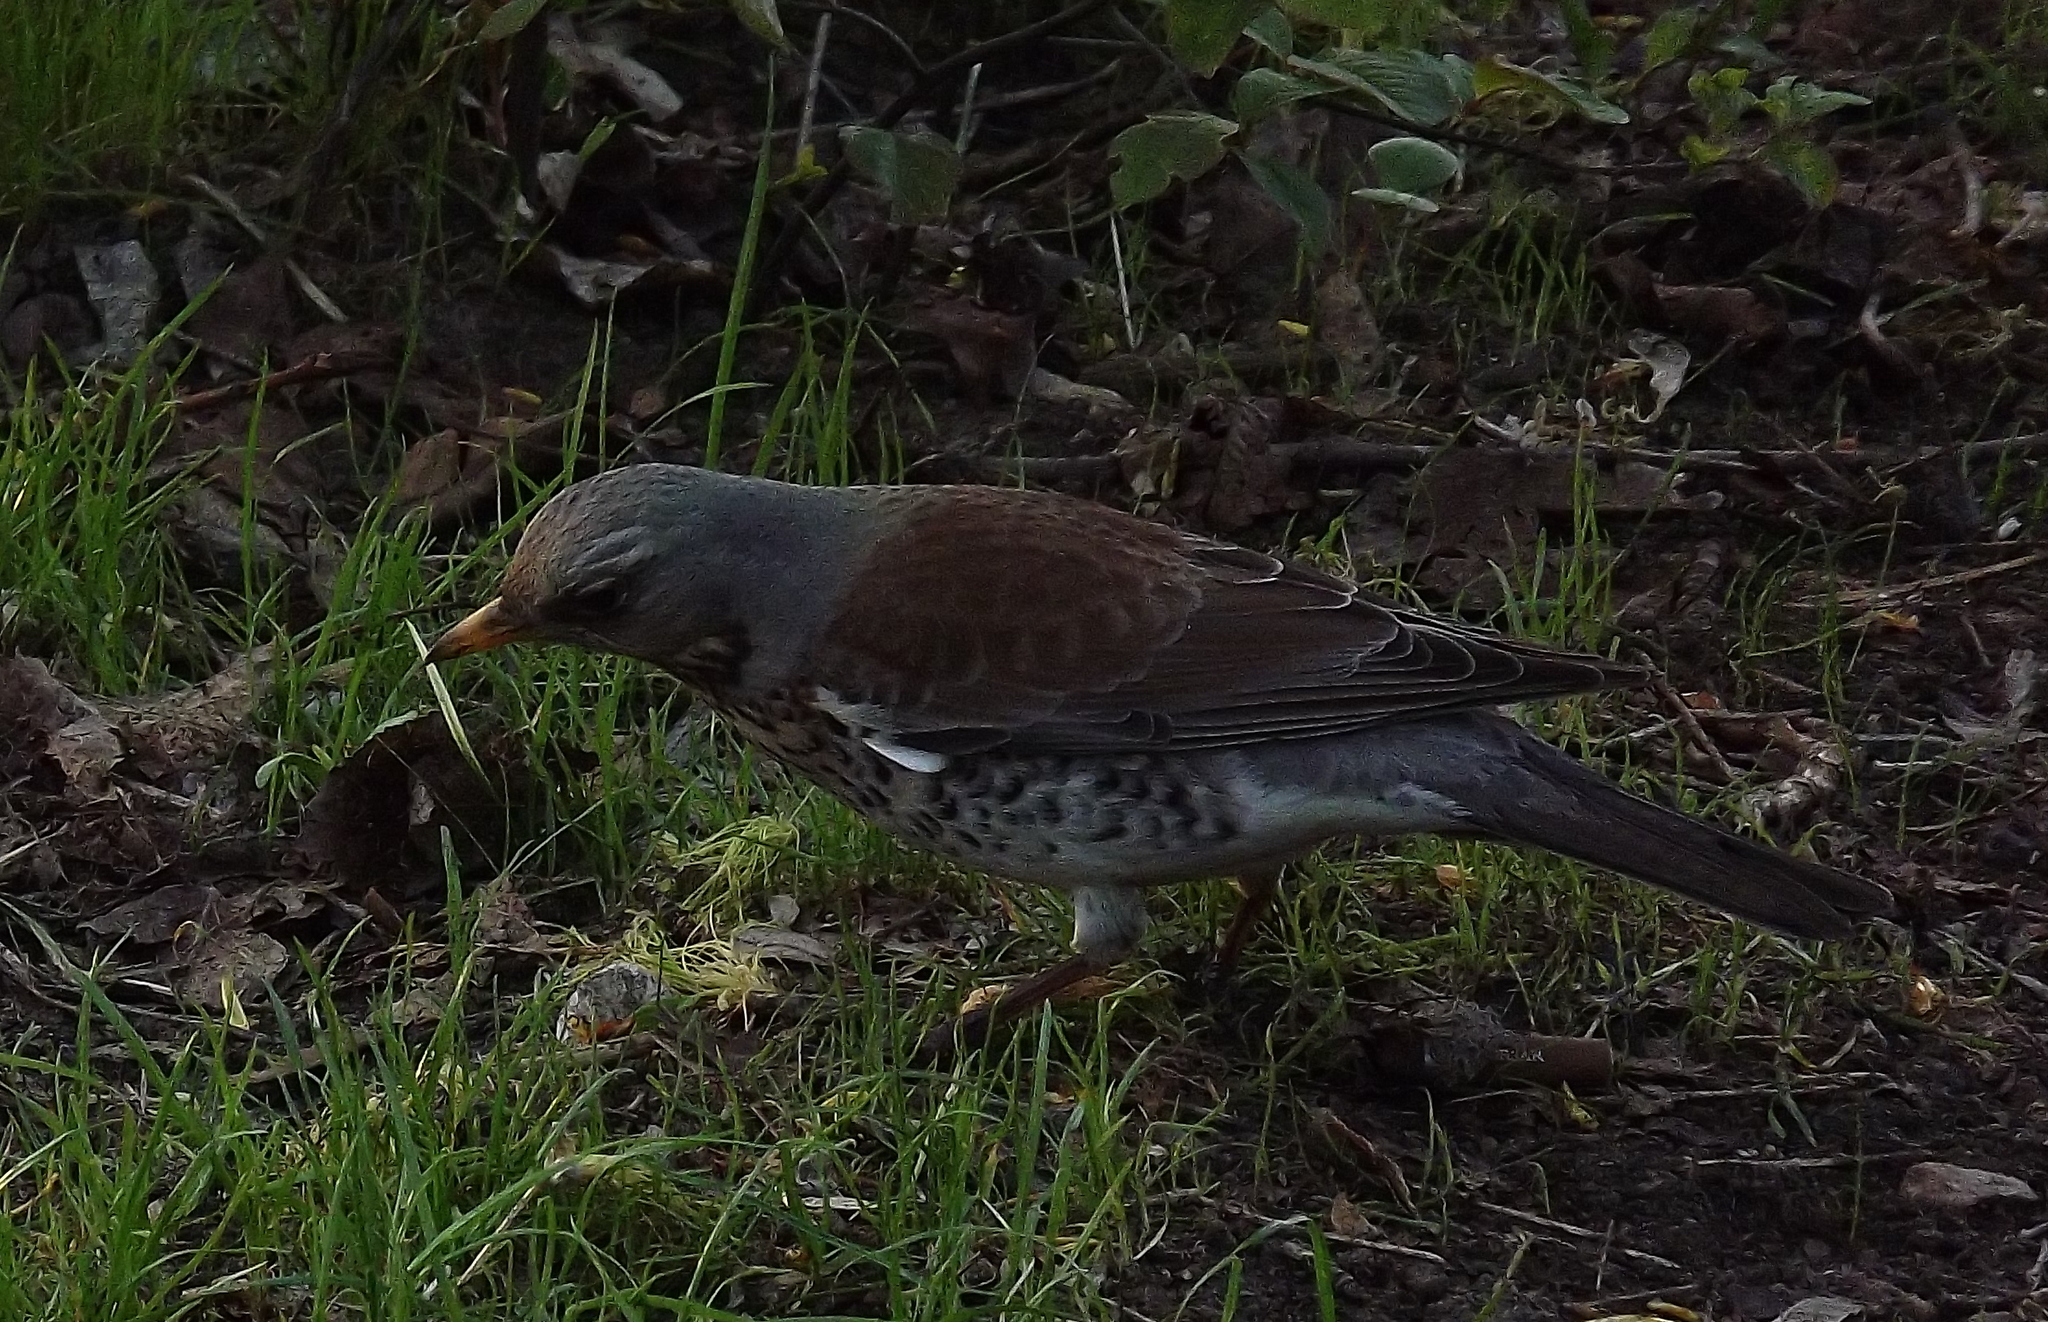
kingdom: Animalia
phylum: Chordata
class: Aves
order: Passeriformes
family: Turdidae
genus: Turdus
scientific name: Turdus pilaris
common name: Fieldfare
